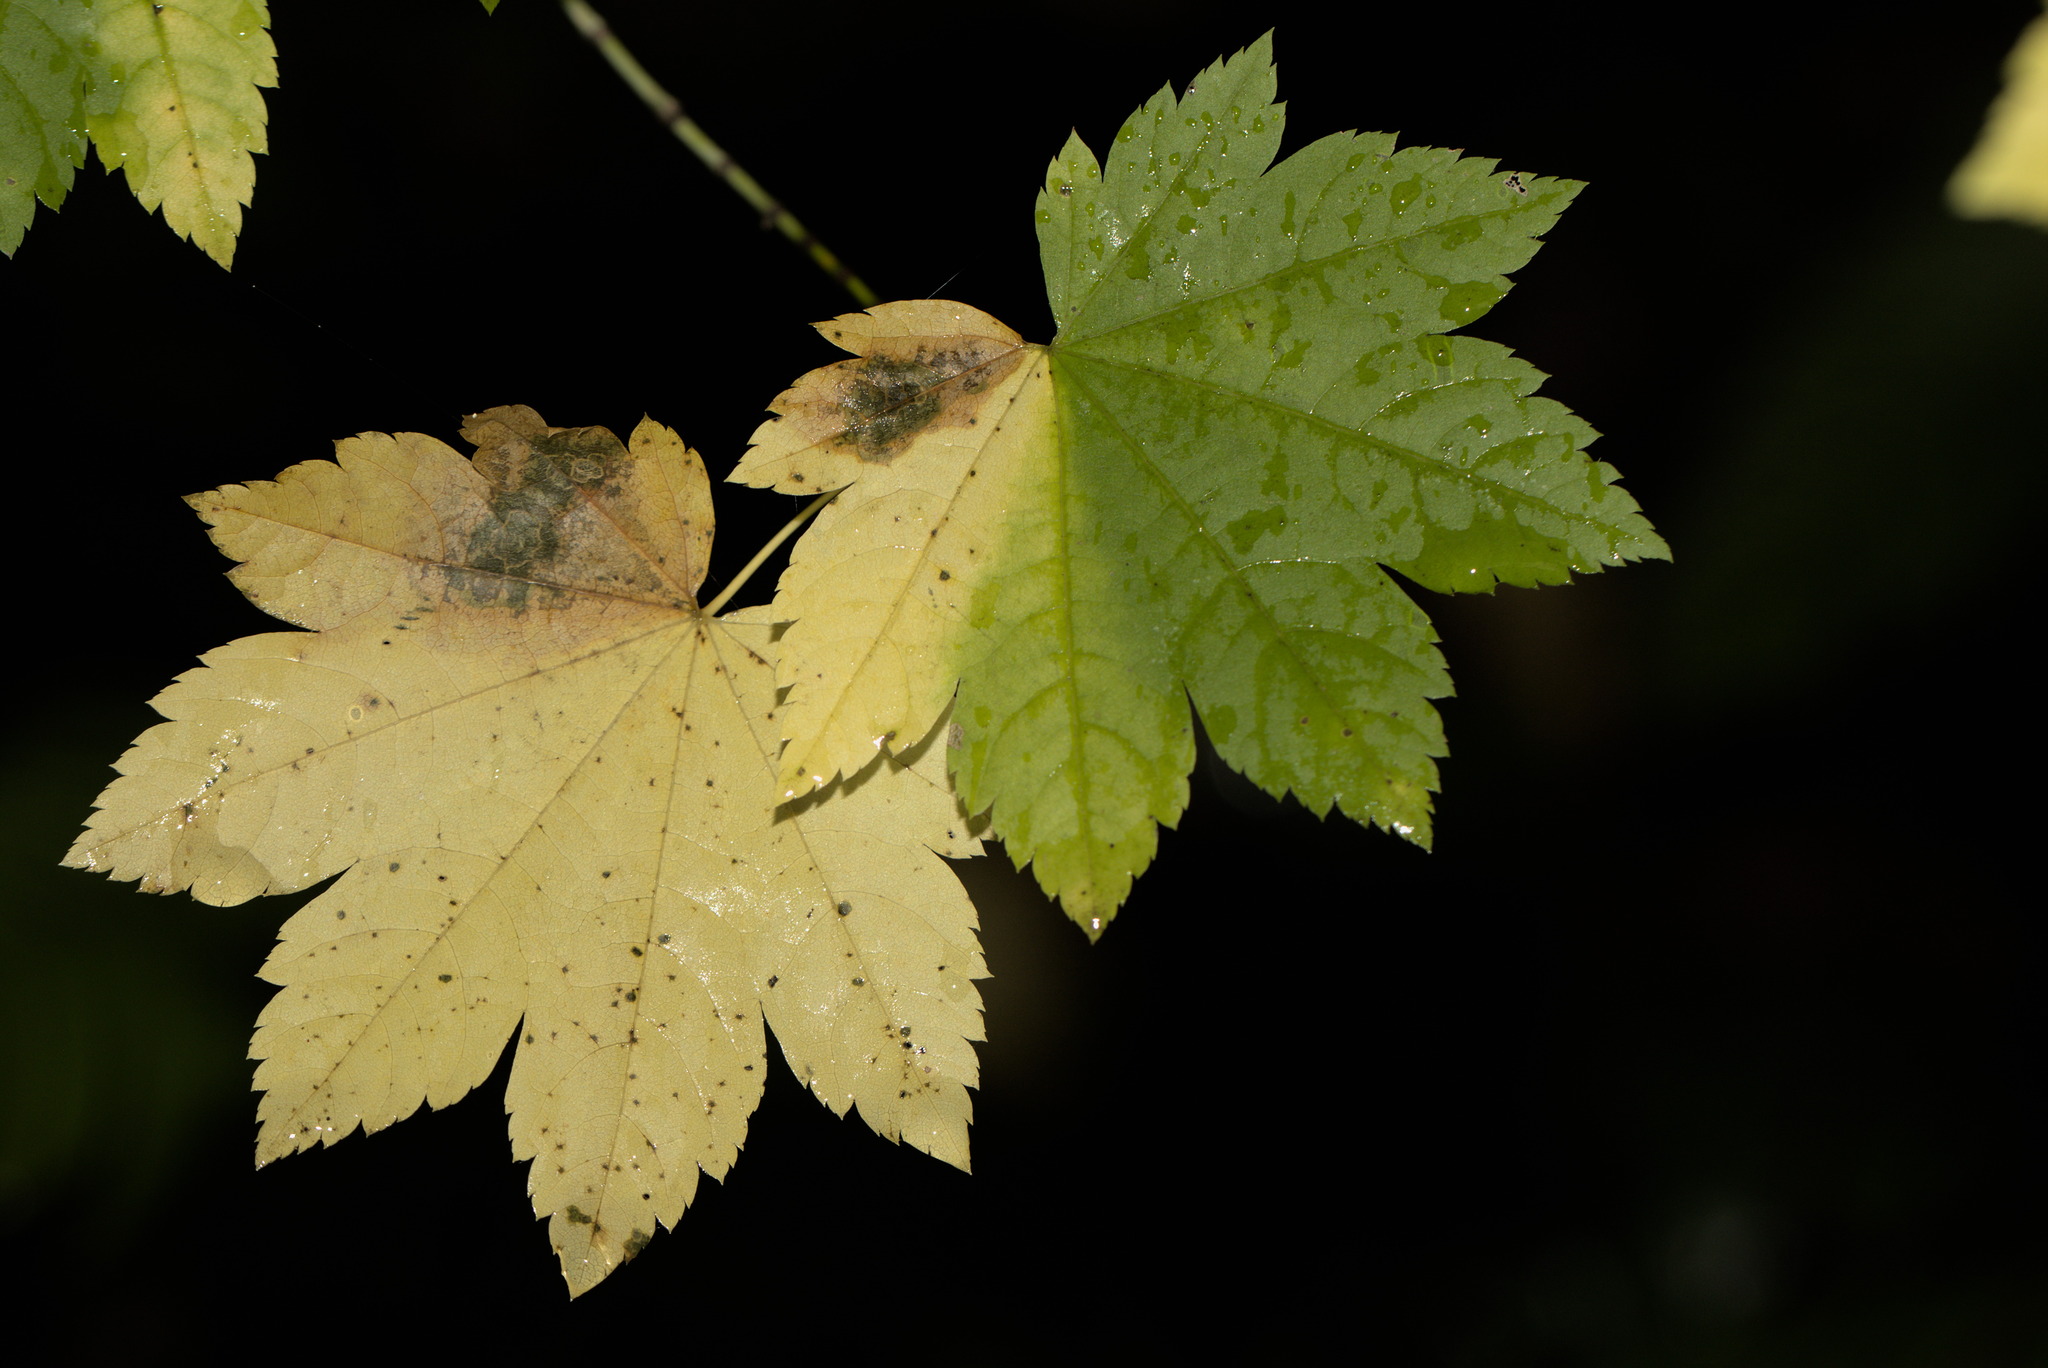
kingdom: Plantae
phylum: Tracheophyta
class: Magnoliopsida
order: Sapindales
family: Sapindaceae
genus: Acer
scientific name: Acer circinatum
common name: Vine maple
